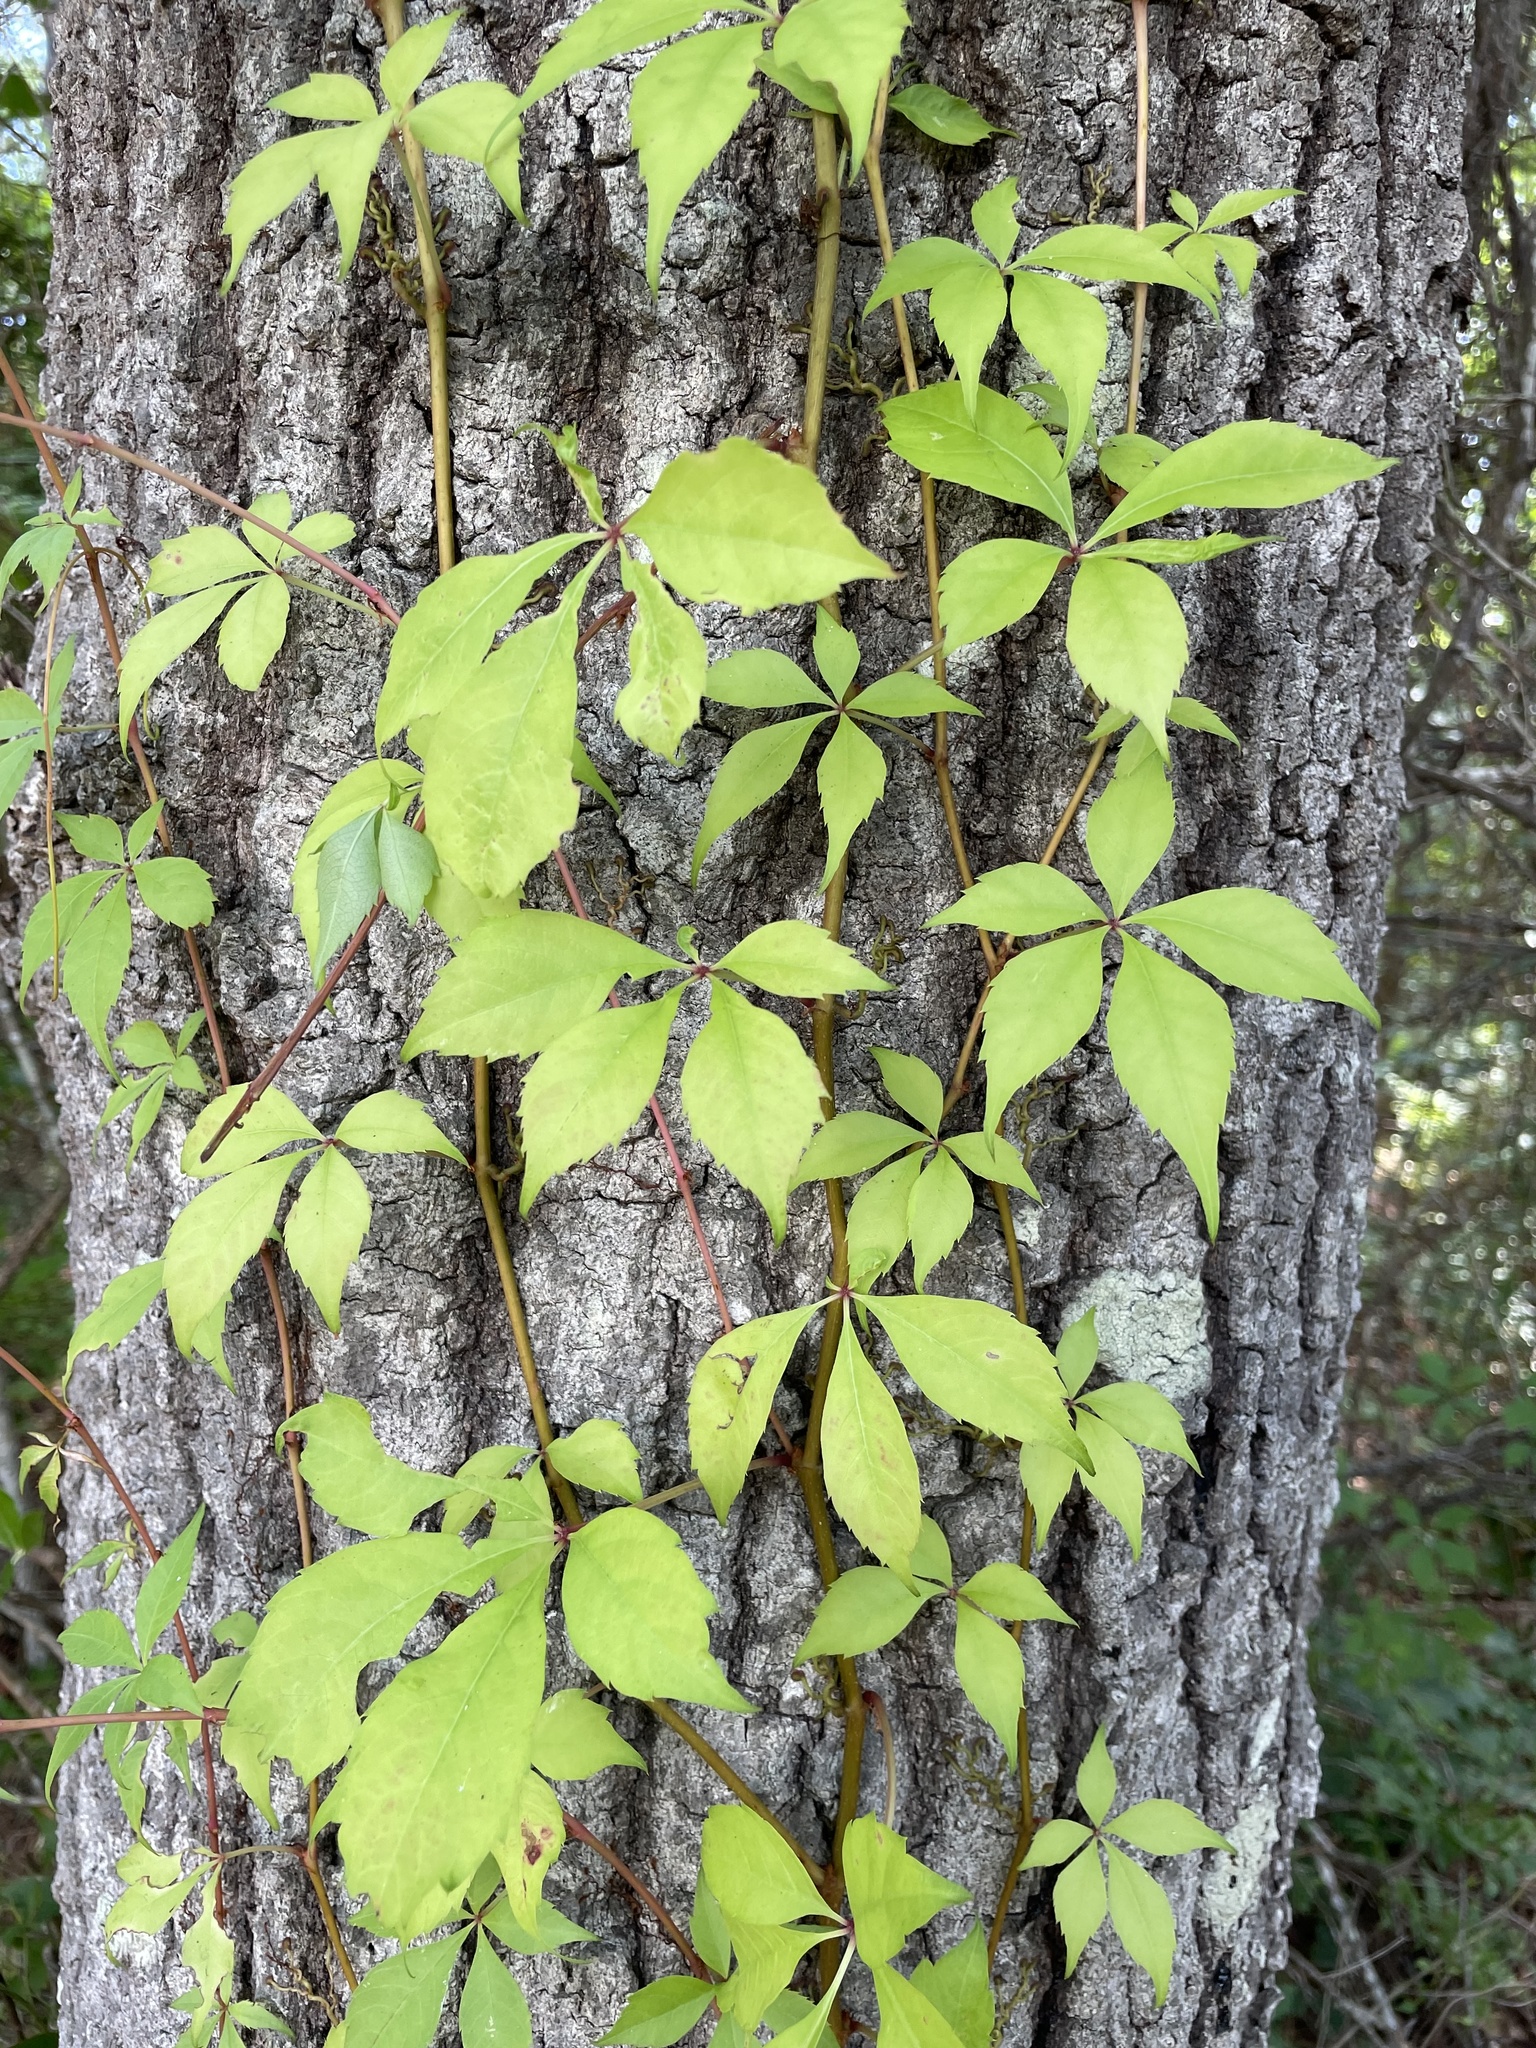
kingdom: Plantae
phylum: Tracheophyta
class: Magnoliopsida
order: Vitales
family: Vitaceae
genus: Parthenocissus
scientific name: Parthenocissus quinquefolia
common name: Virginia-creeper
